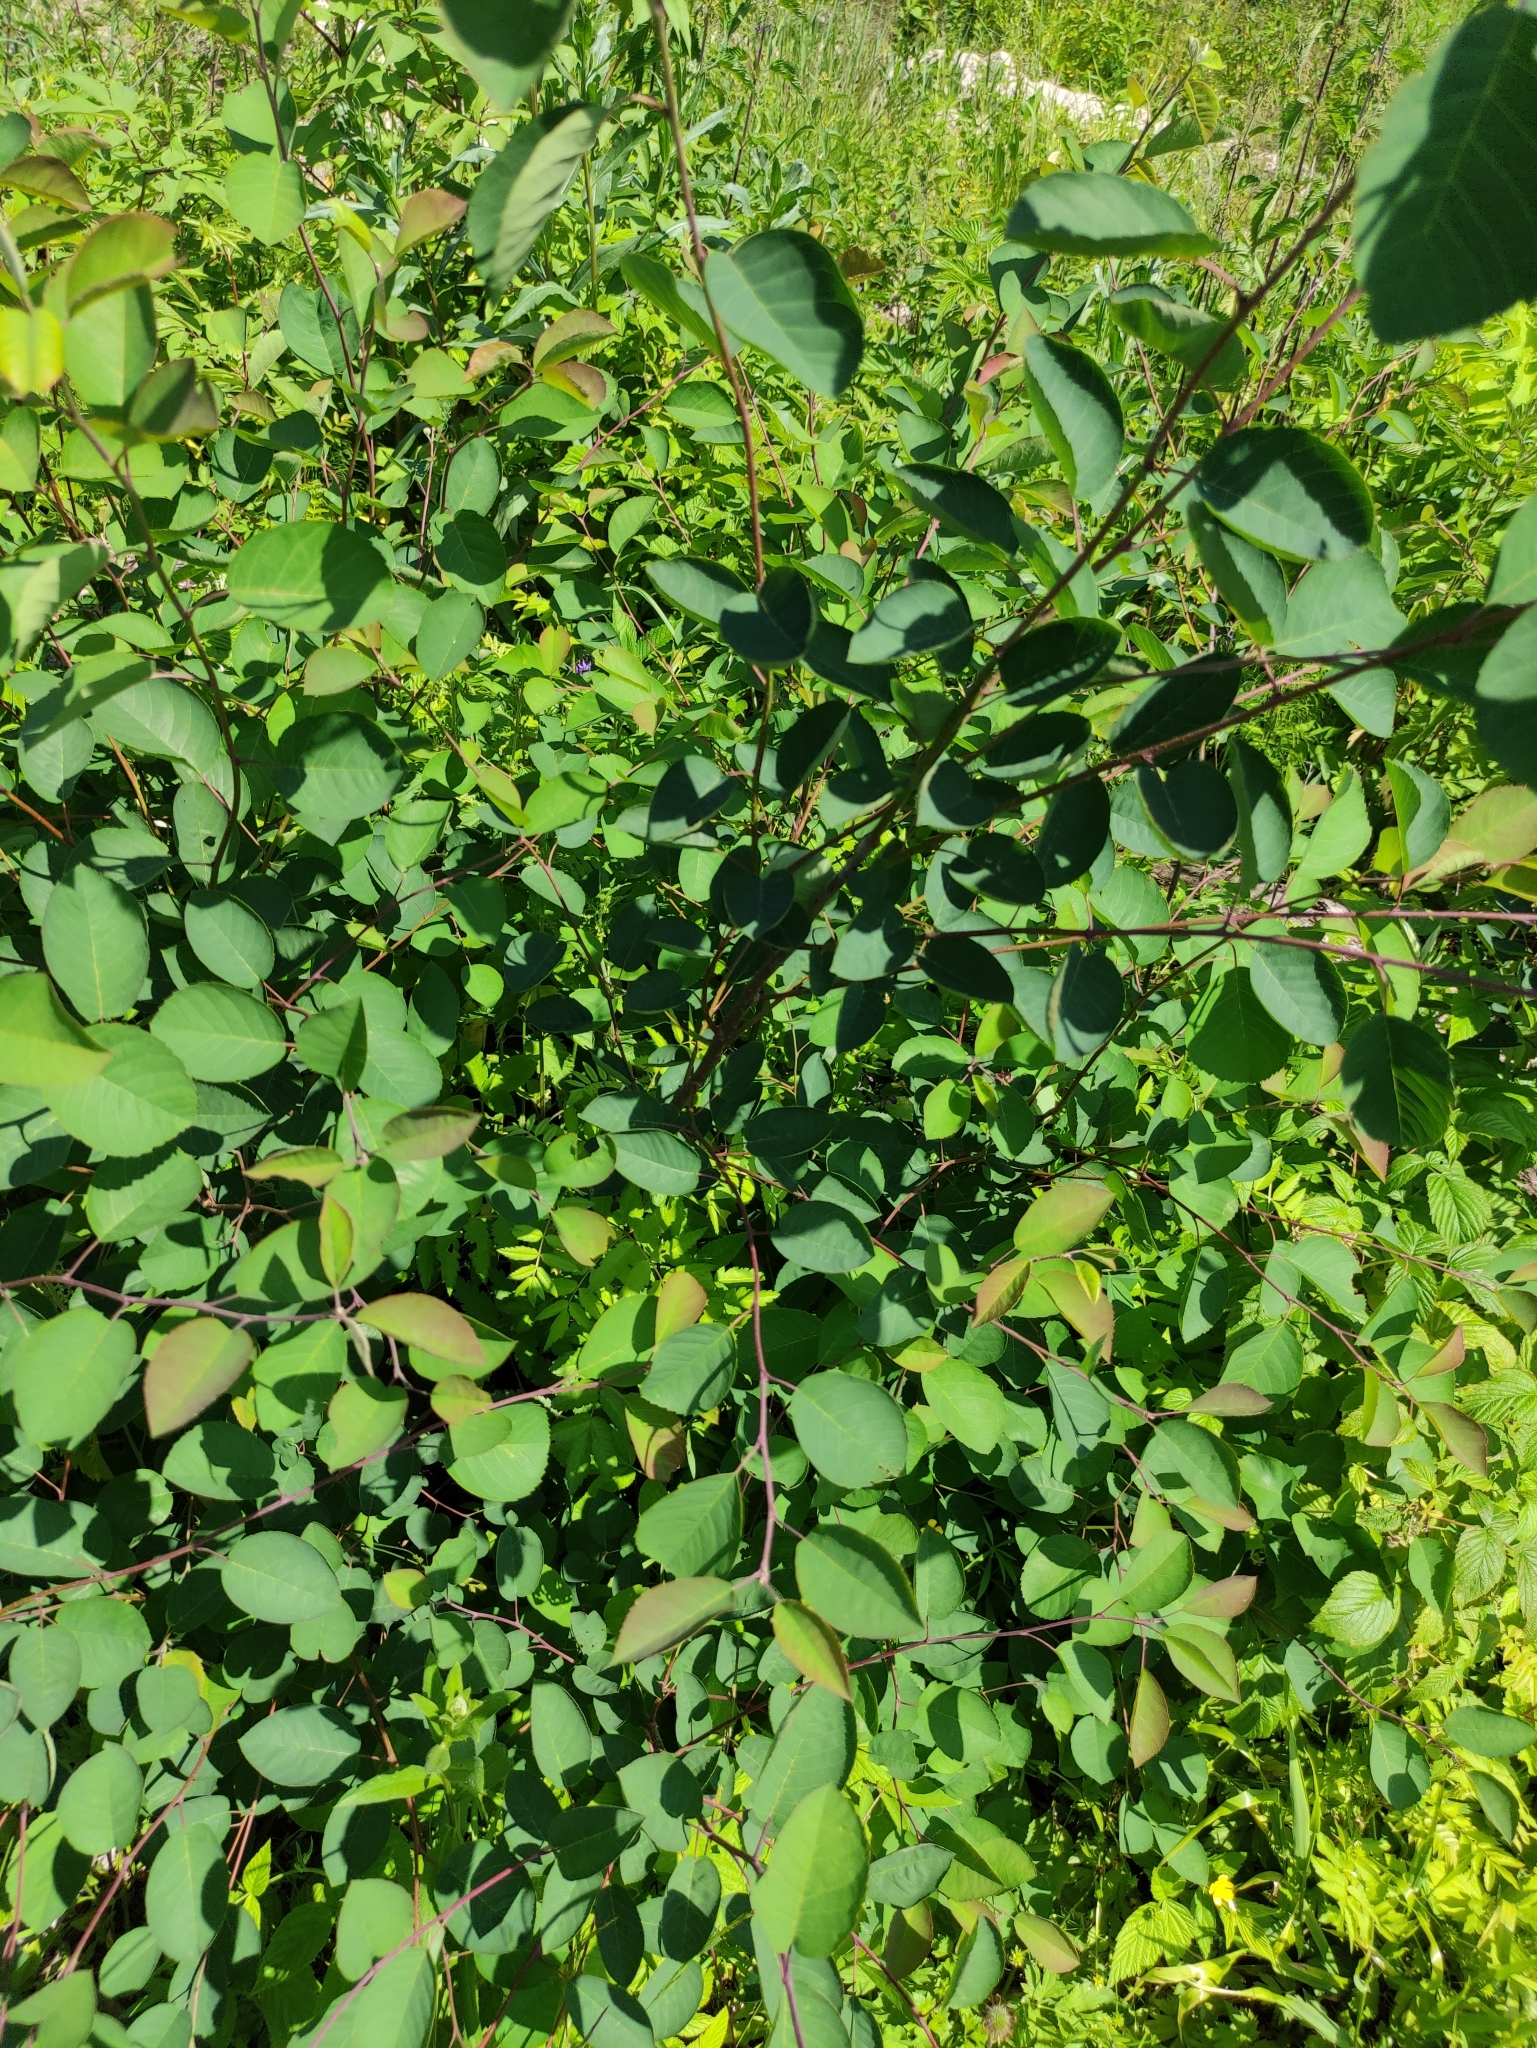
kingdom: Plantae
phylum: Tracheophyta
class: Magnoliopsida
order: Rosales
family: Rosaceae
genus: Amelanchier
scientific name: Amelanchier
